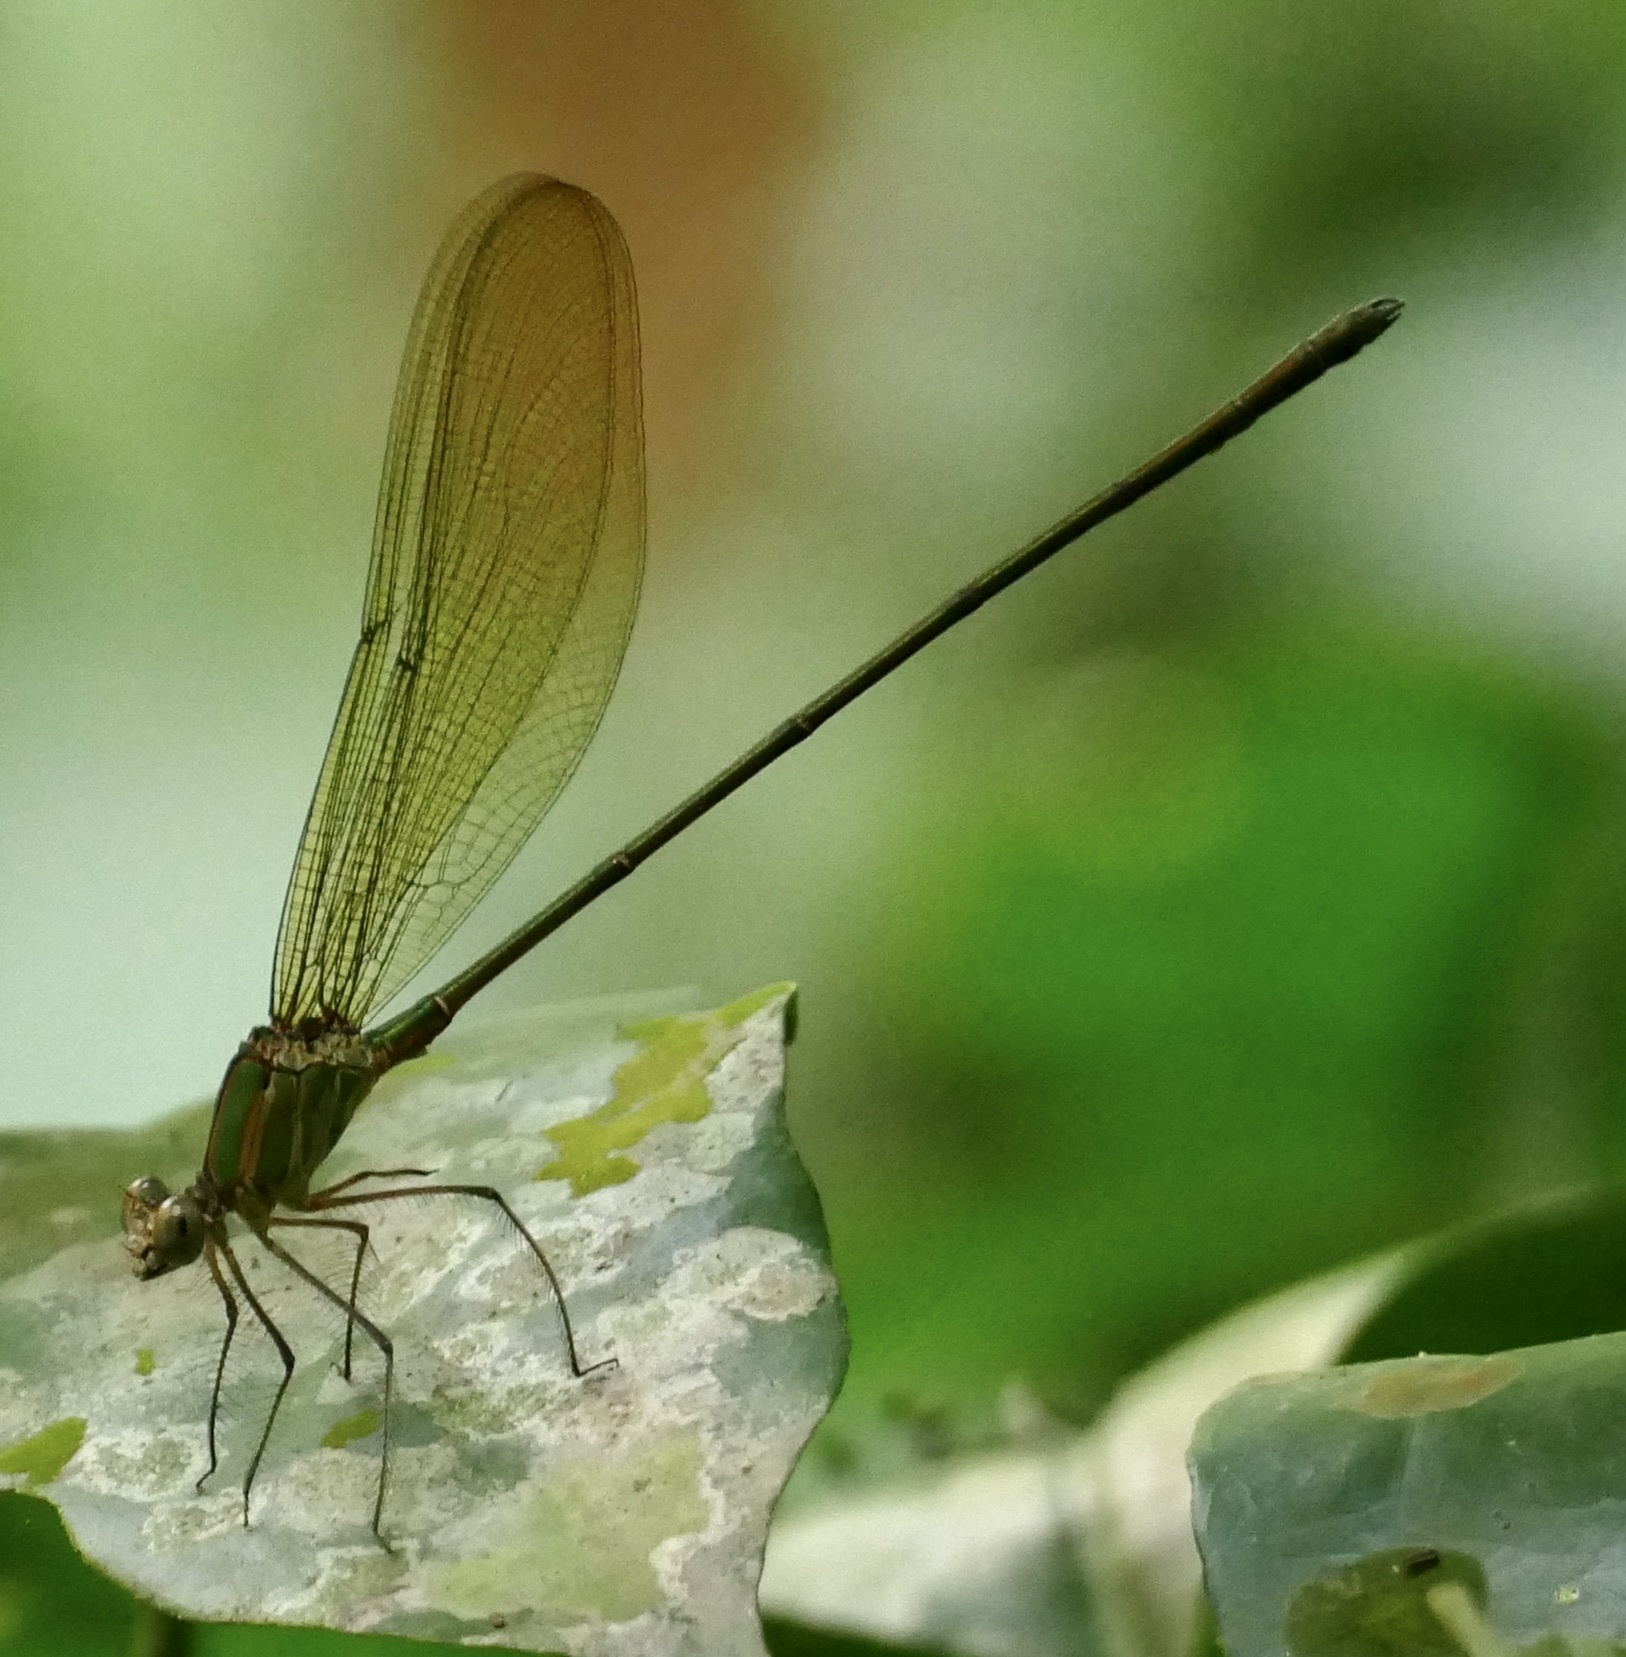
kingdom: Animalia
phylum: Arthropoda
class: Insecta
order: Odonata
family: Calopterygidae
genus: Phaon
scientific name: Phaon iridipennis
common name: Glistening demoiselle
